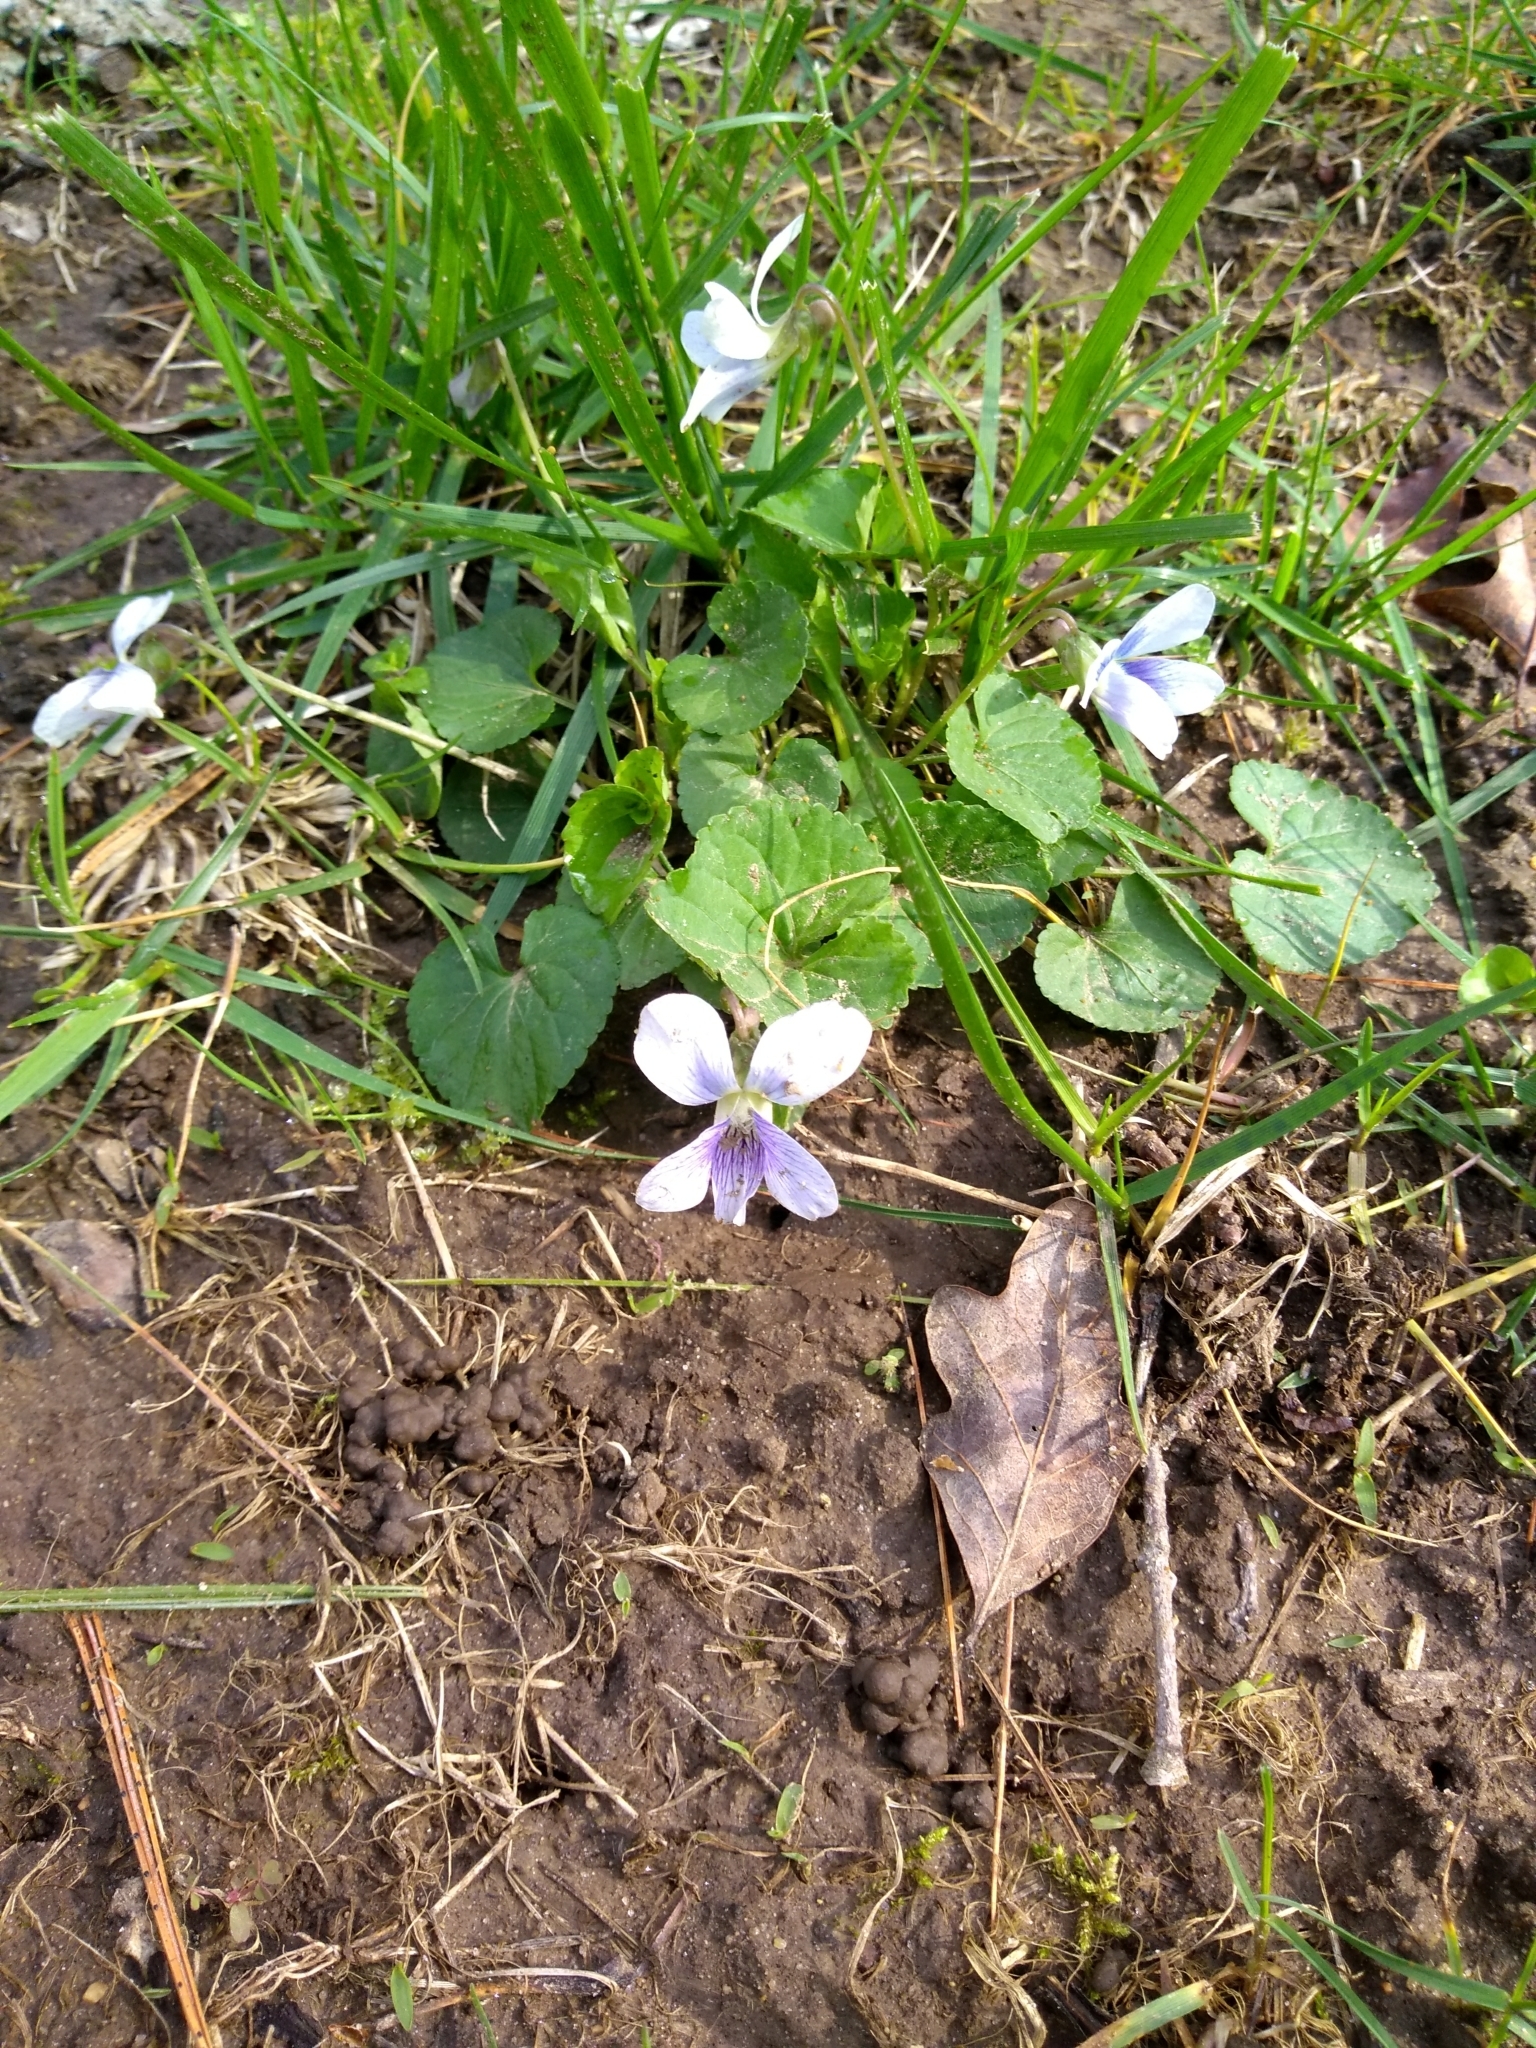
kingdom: Plantae
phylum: Tracheophyta
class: Magnoliopsida
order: Malpighiales
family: Violaceae
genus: Viola
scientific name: Viola sororia
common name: Dooryard violet
